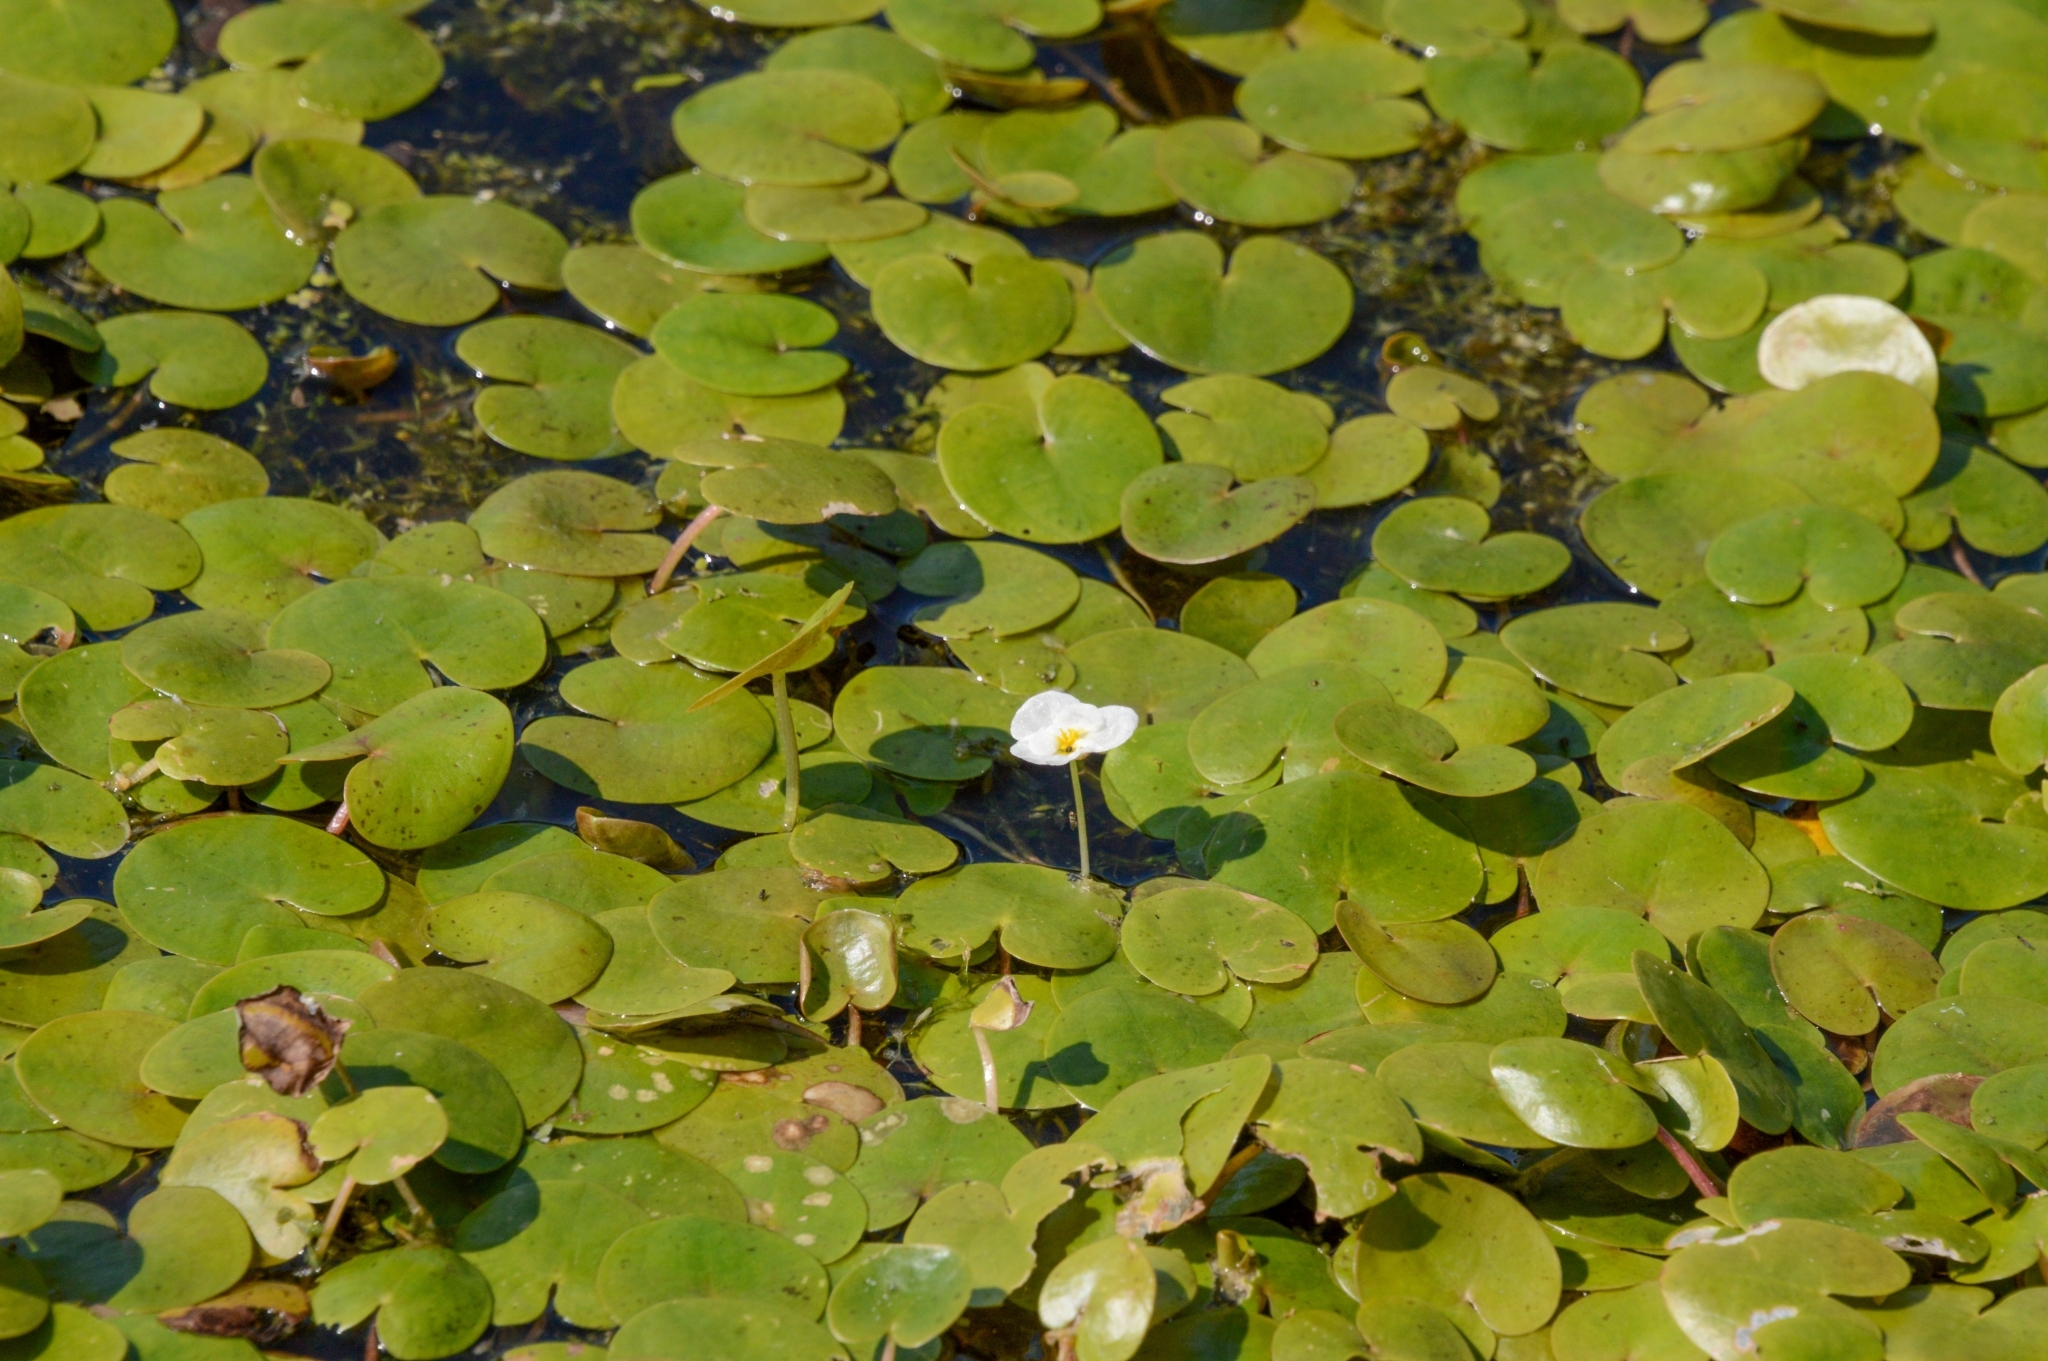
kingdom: Plantae
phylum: Tracheophyta
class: Liliopsida
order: Alismatales
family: Hydrocharitaceae
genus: Hydrocharis
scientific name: Hydrocharis morsus-ranae
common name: Frogbit
